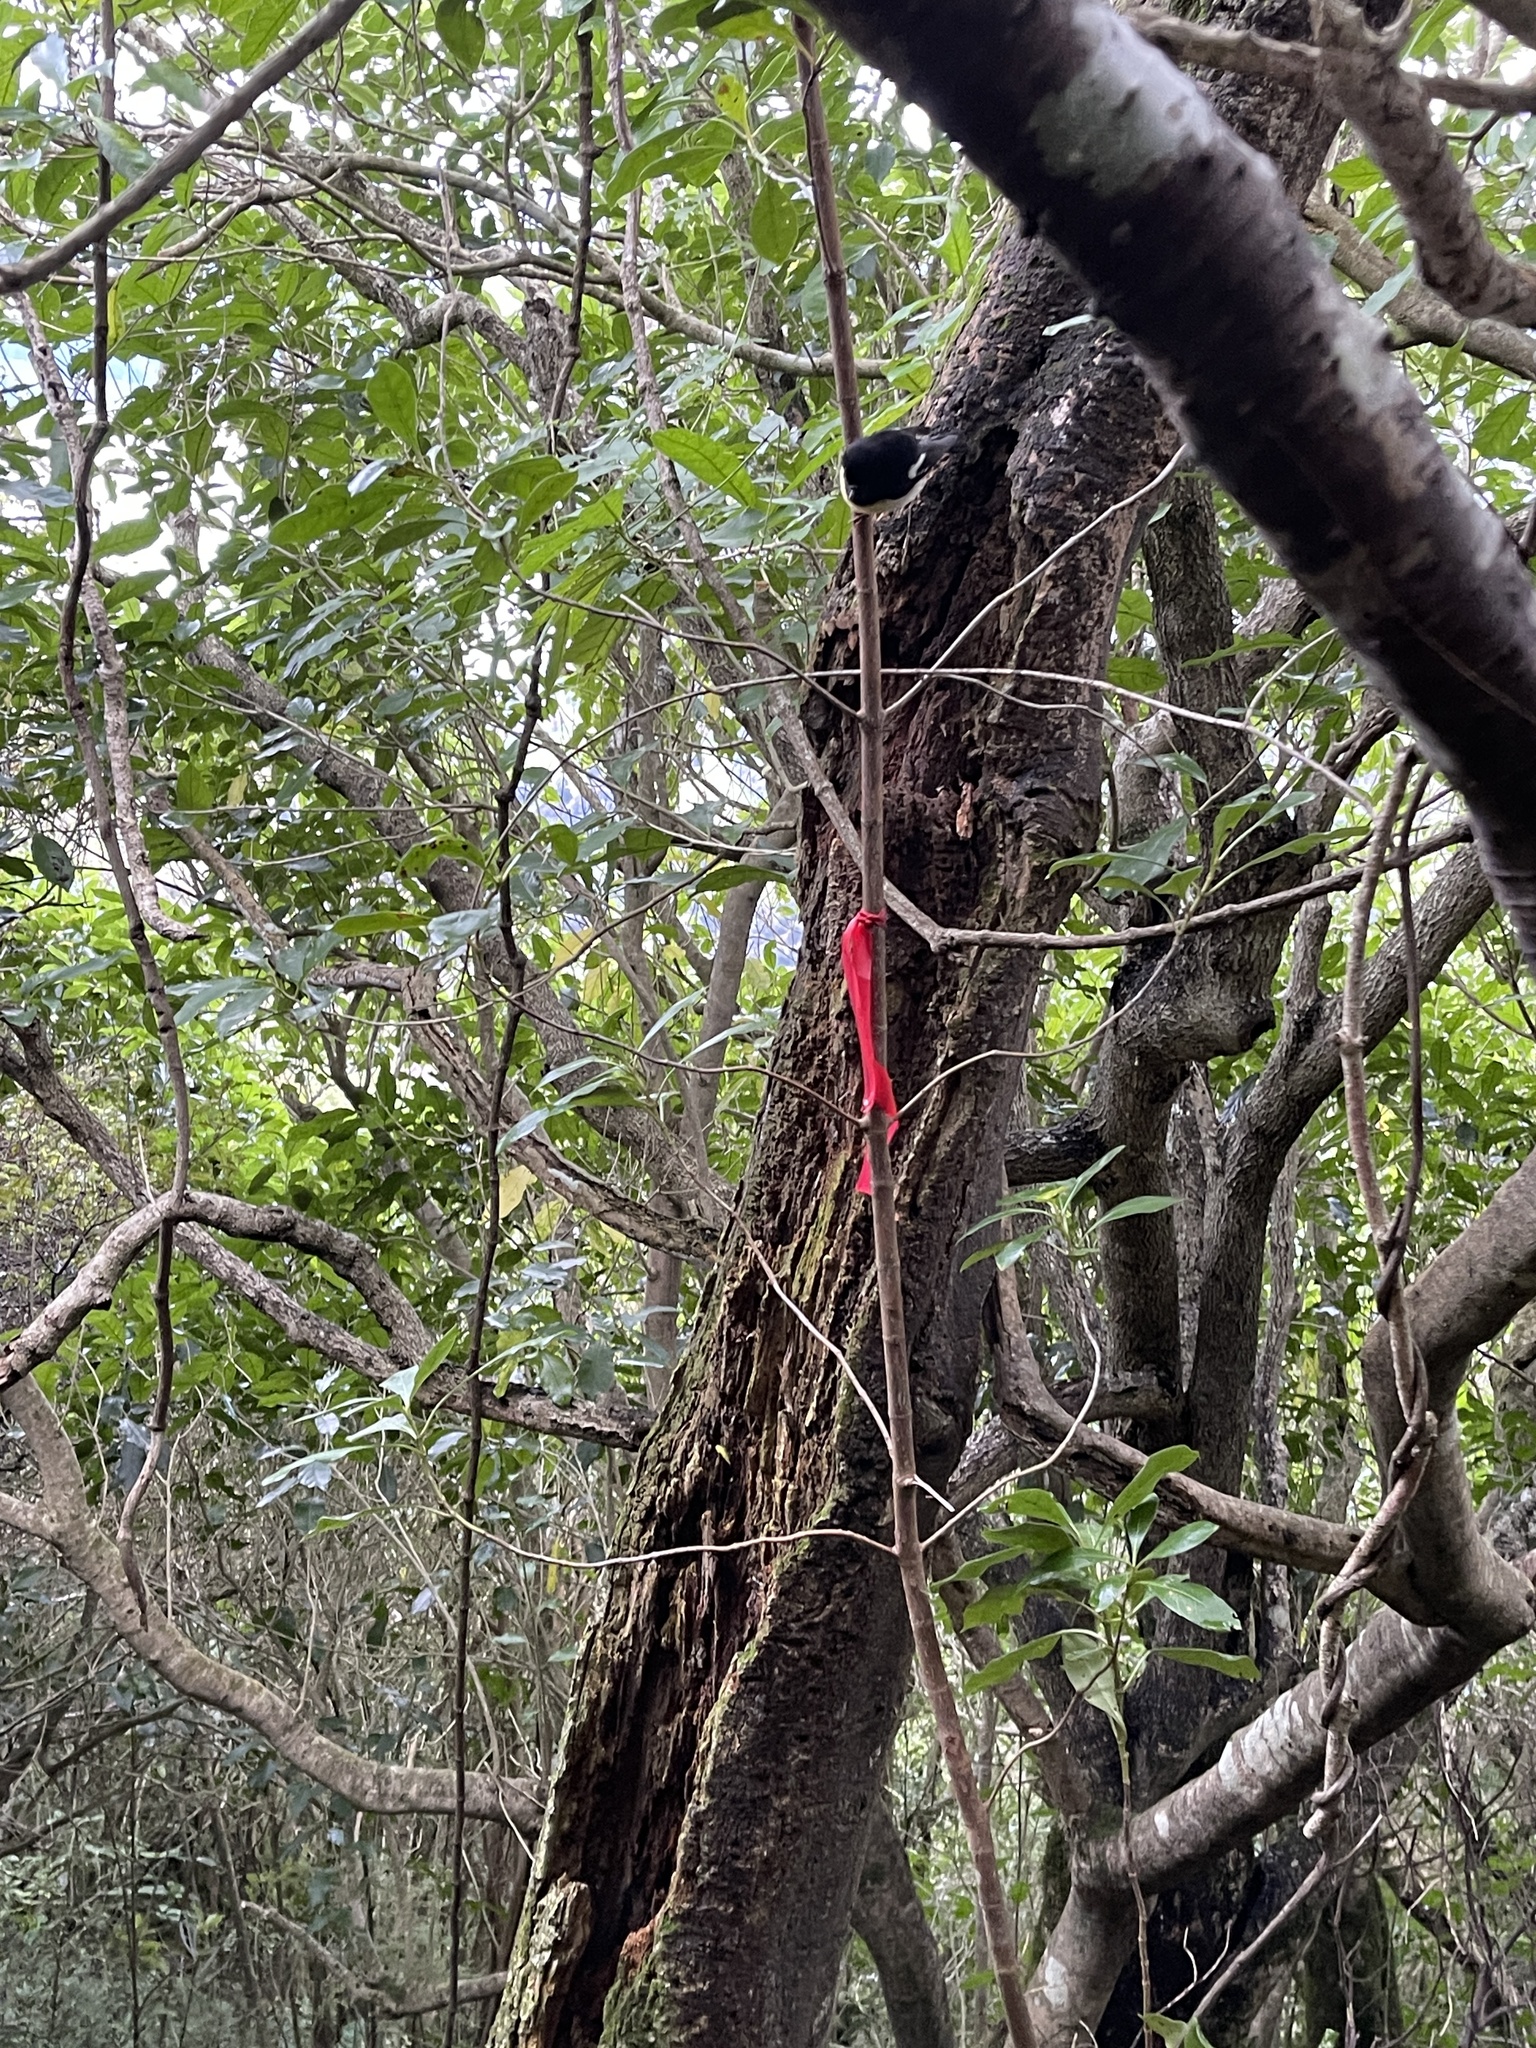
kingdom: Animalia
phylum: Chordata
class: Aves
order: Passeriformes
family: Petroicidae
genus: Petroica
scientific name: Petroica macrocephala
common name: Tomtit
